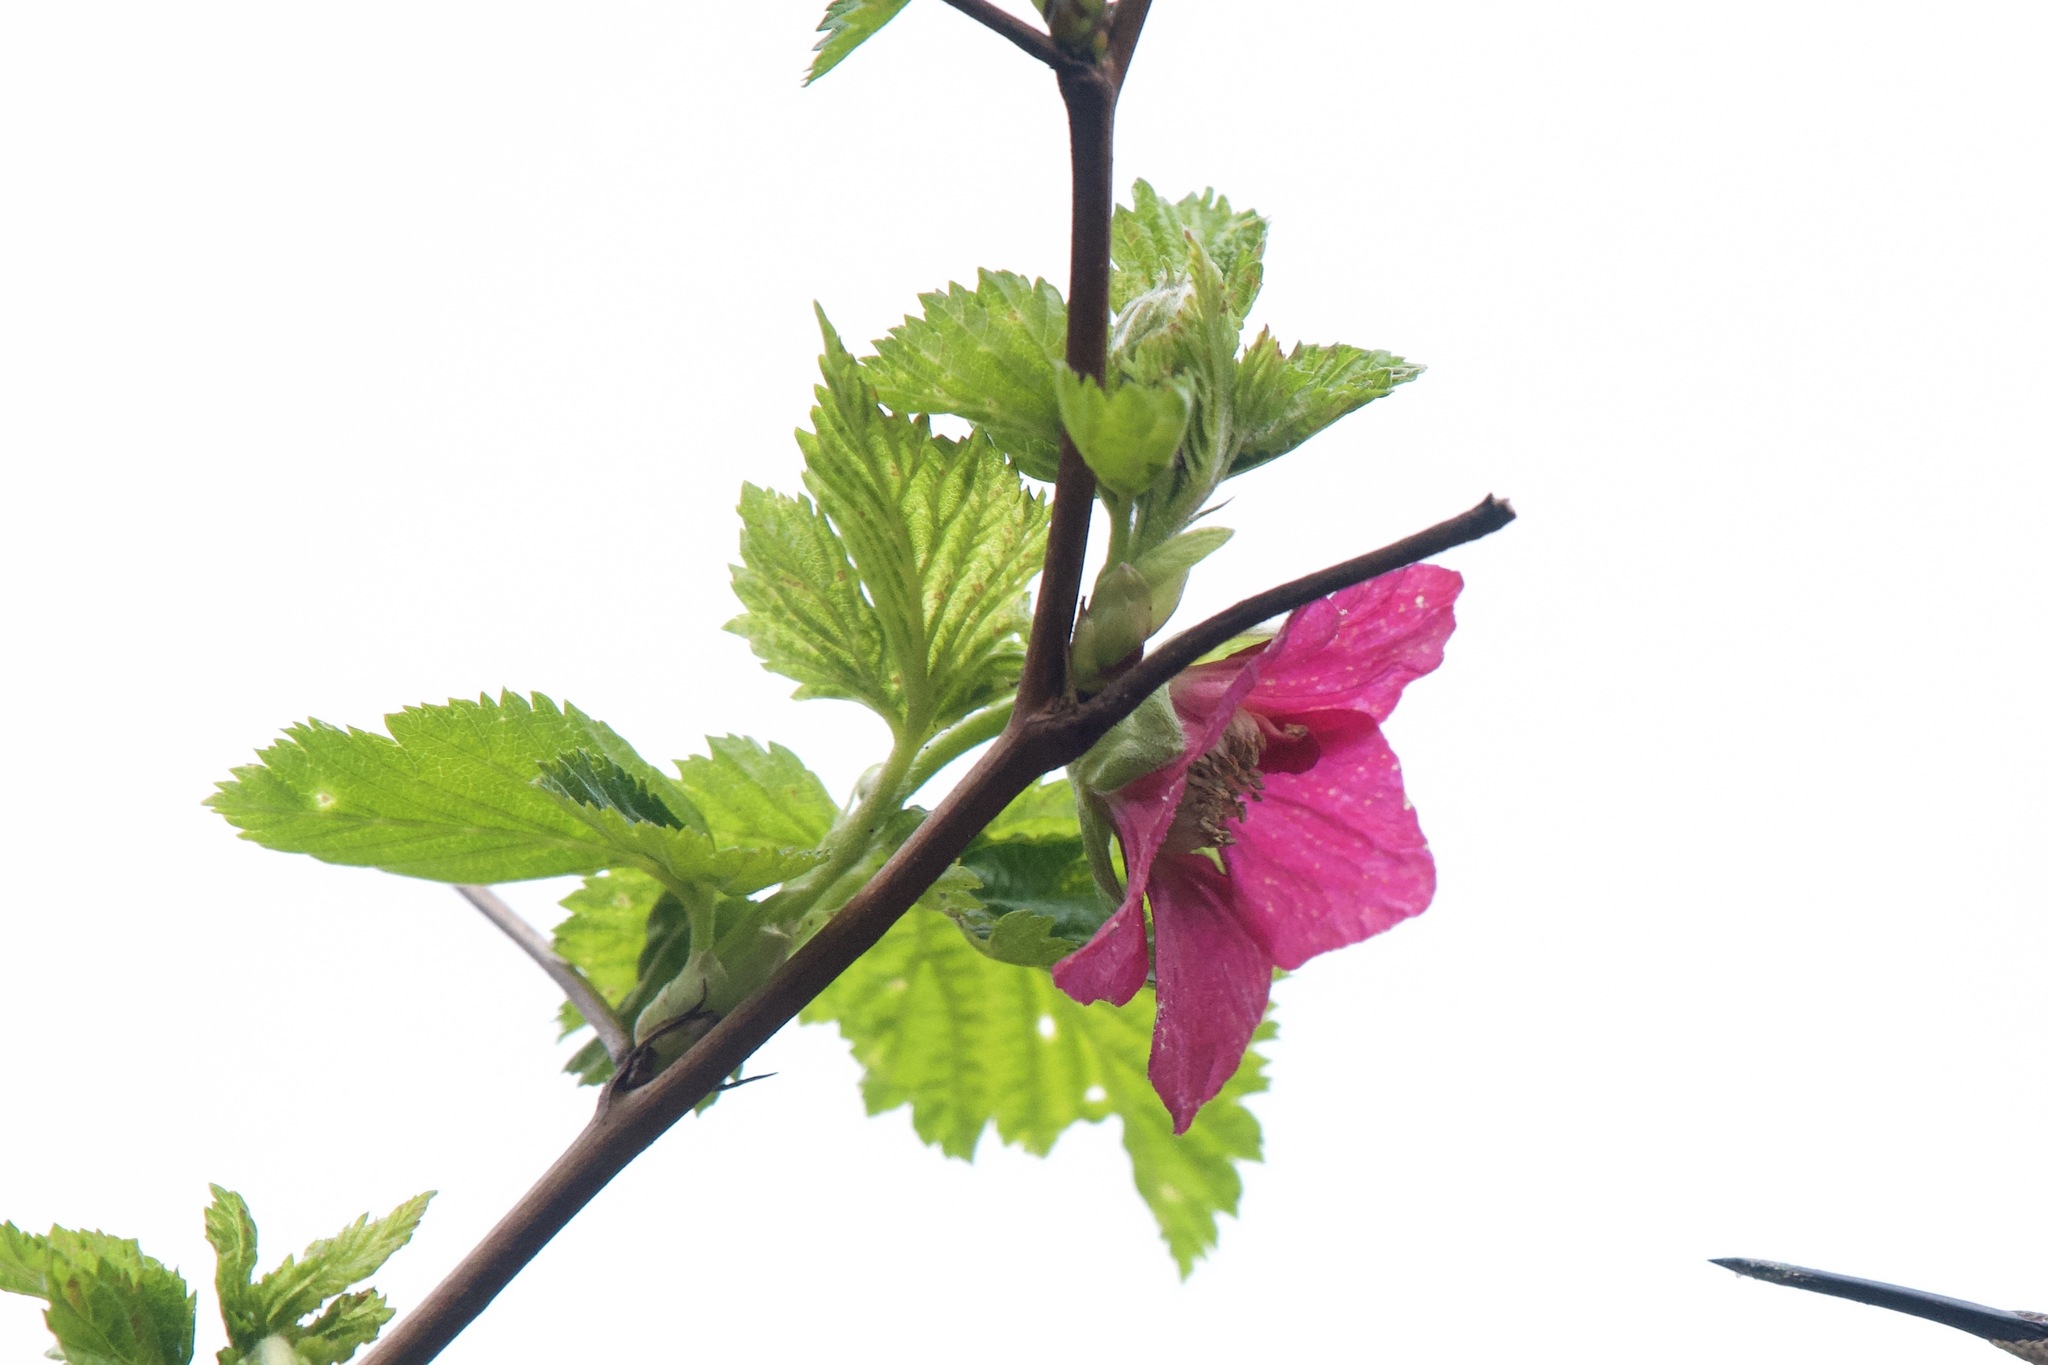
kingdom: Plantae
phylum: Tracheophyta
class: Magnoliopsida
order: Rosales
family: Rosaceae
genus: Rubus
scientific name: Rubus spectabilis
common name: Salmonberry
